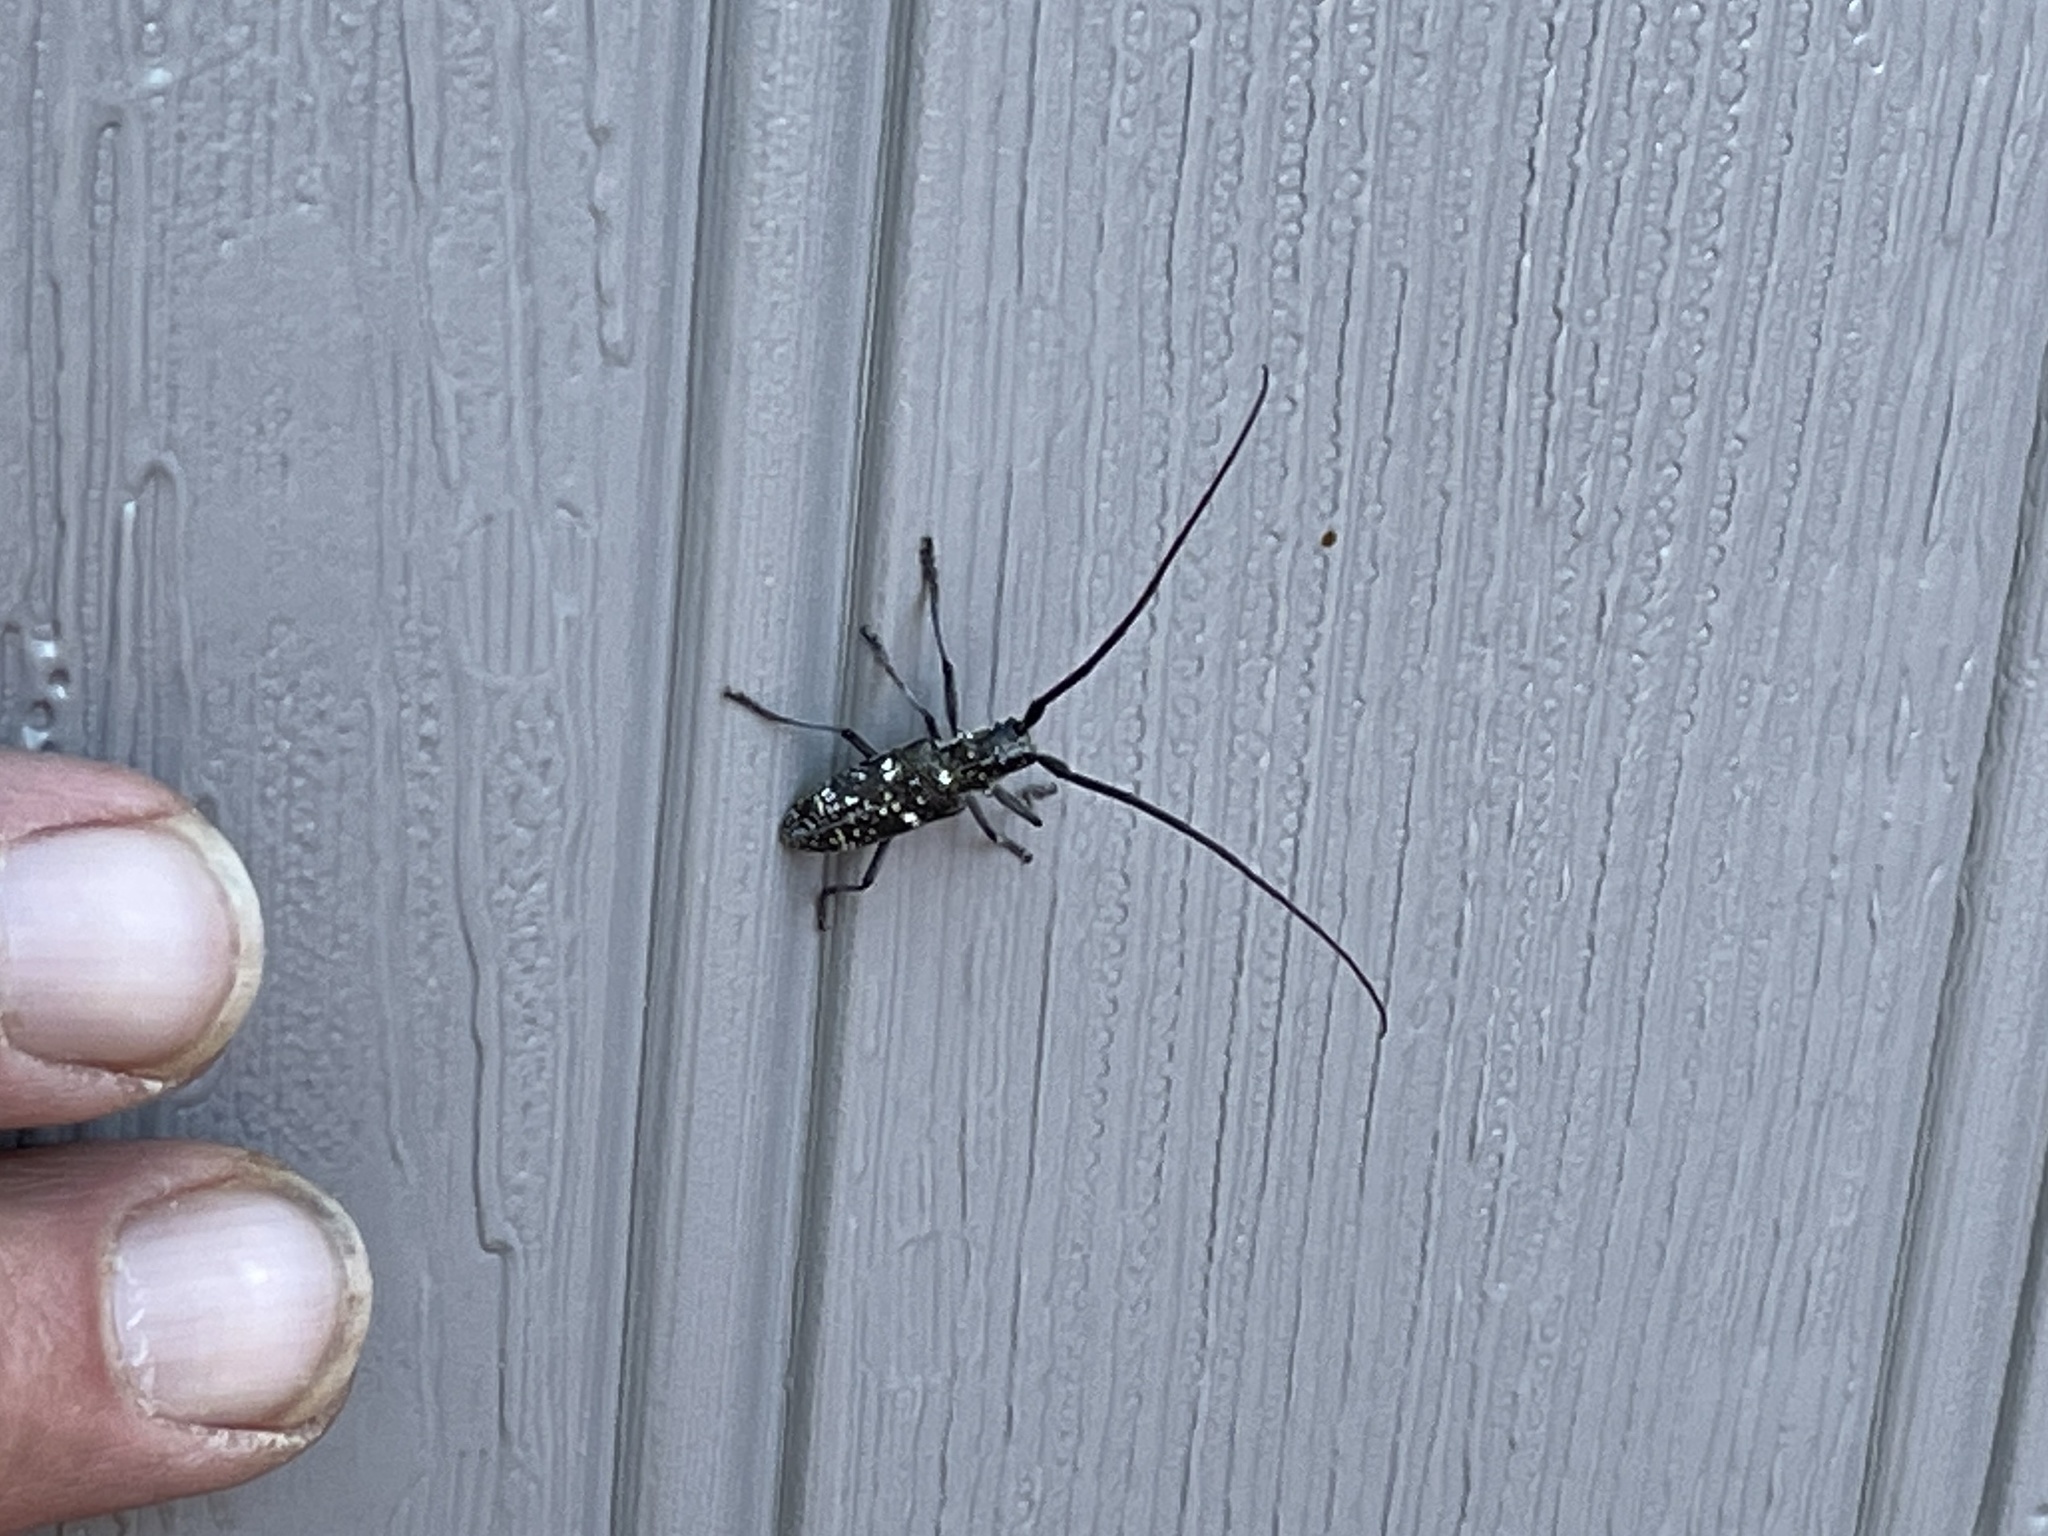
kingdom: Animalia
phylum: Arthropoda
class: Insecta
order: Coleoptera
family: Cerambycidae
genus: Monochamus
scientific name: Monochamus scutellatus
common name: White-spotted sawyer beetle
